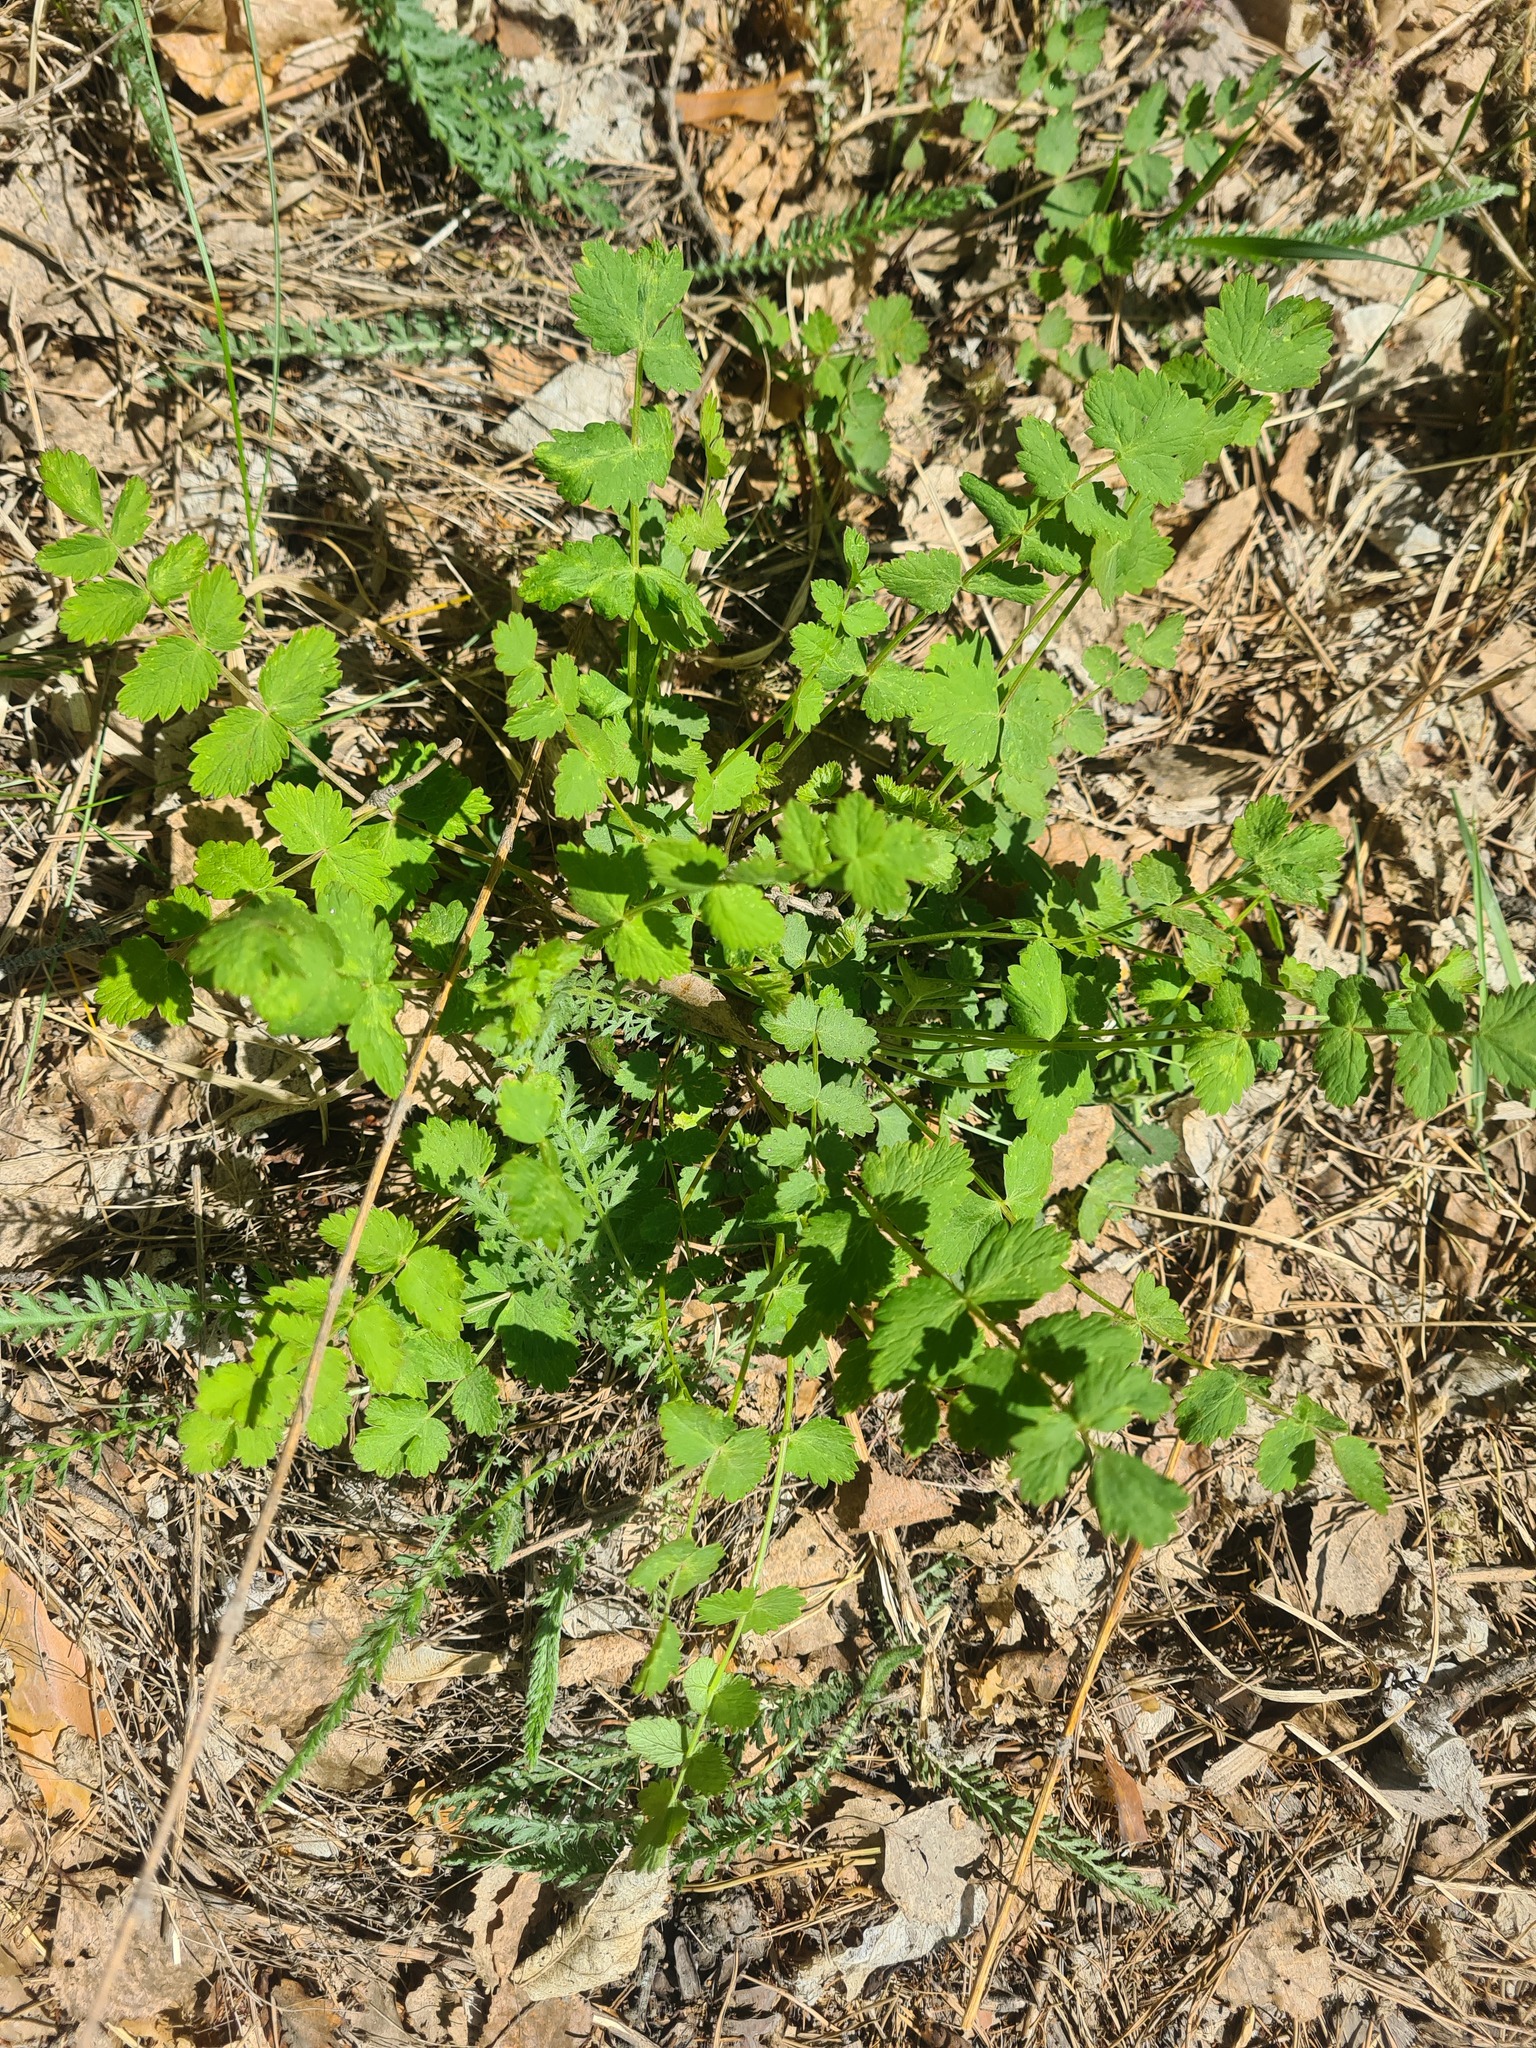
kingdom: Plantae
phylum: Tracheophyta
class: Magnoliopsida
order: Apiales
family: Apiaceae
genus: Pimpinella
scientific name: Pimpinella saxifraga
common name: Burnet-saxifrage
